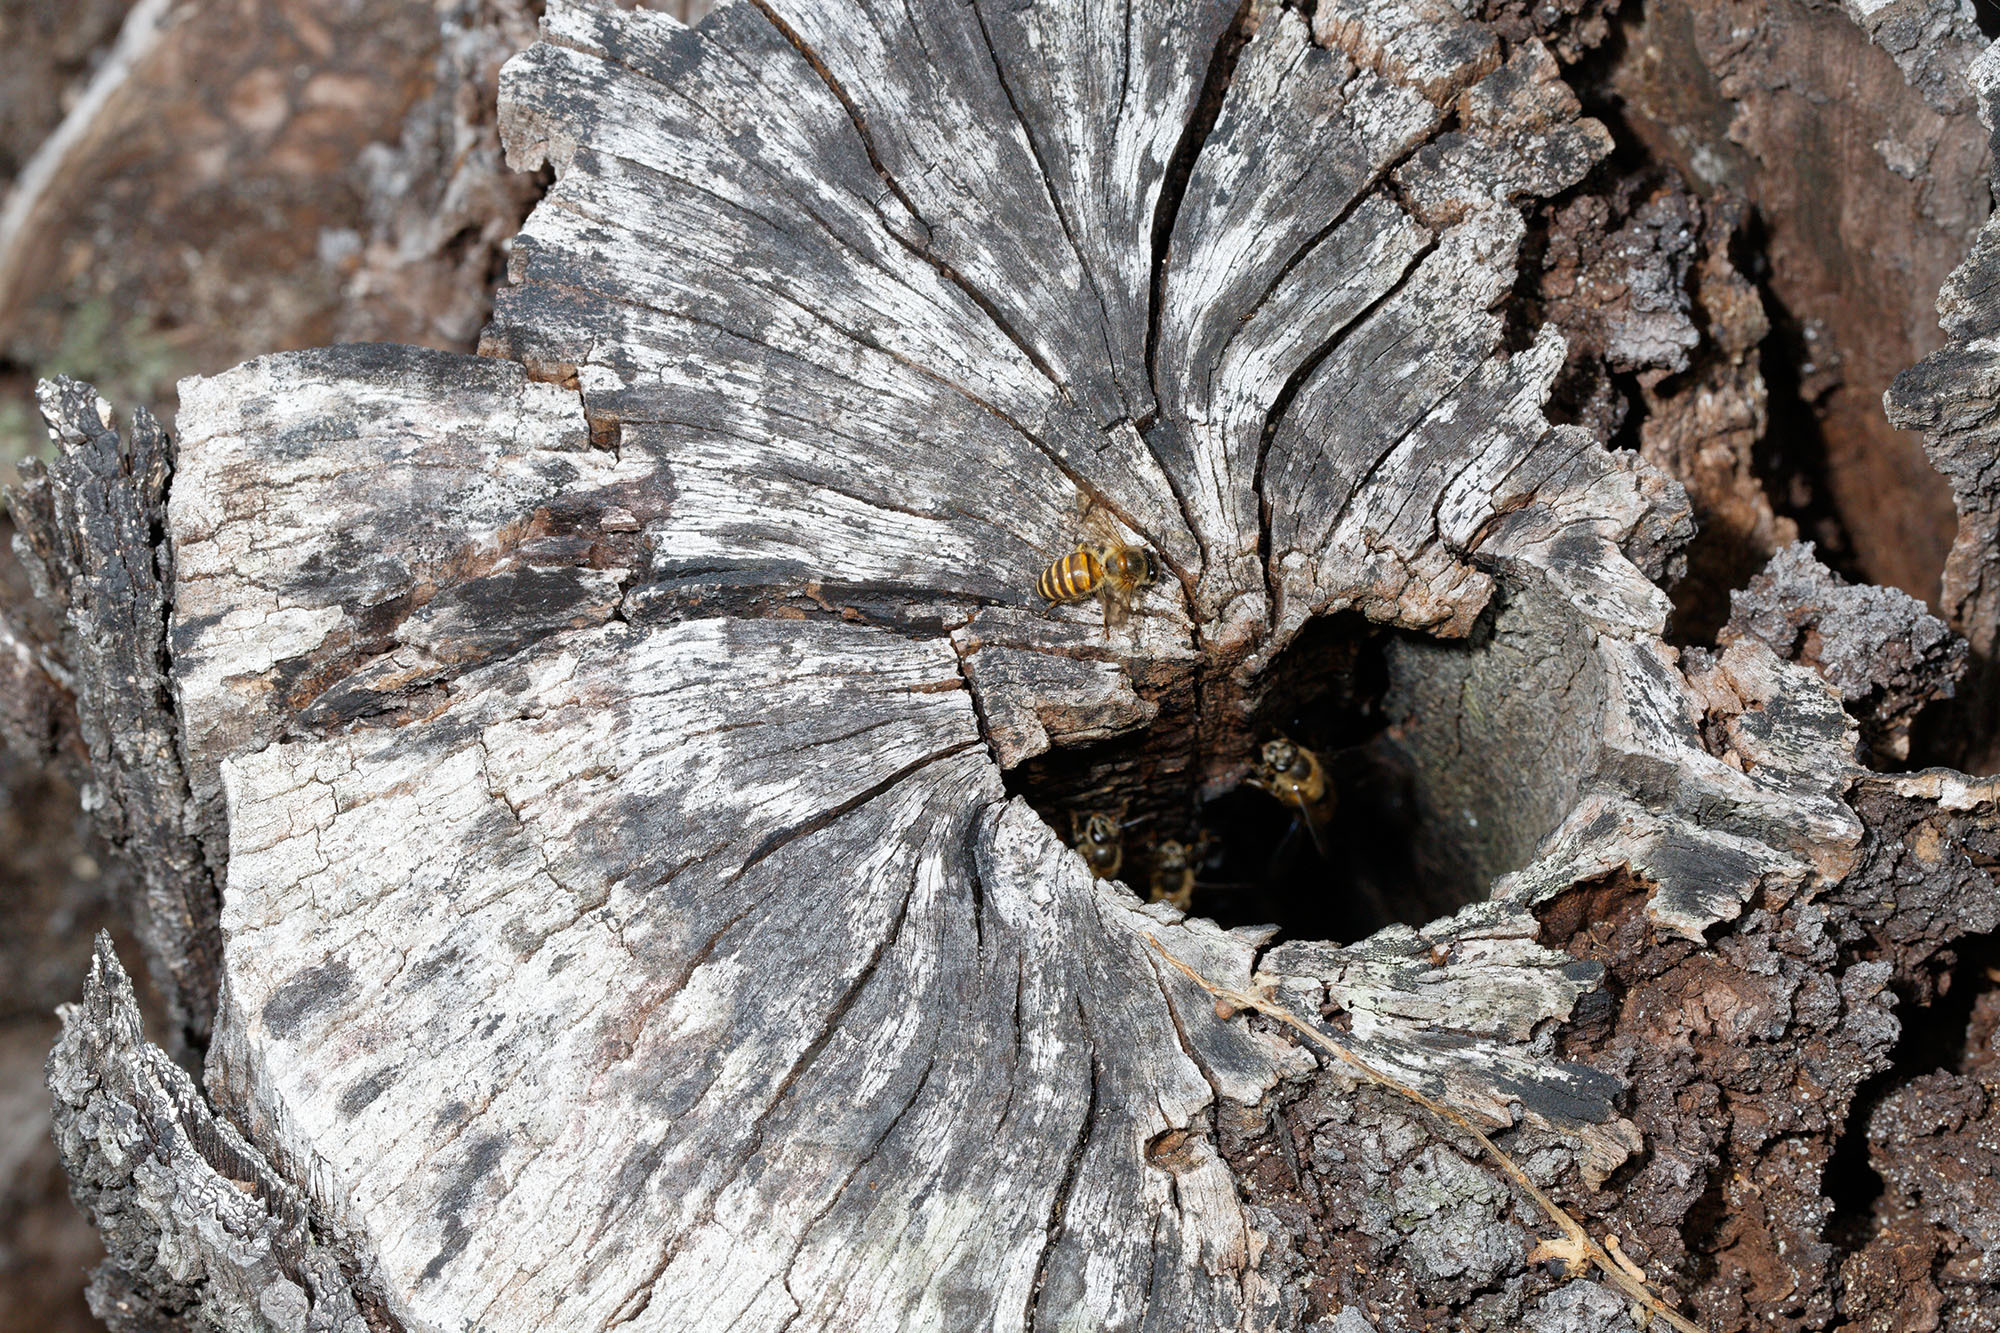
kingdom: Animalia
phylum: Arthropoda
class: Insecta
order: Hymenoptera
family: Apidae
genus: Apis
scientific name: Apis mellifera
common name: Honey bee
